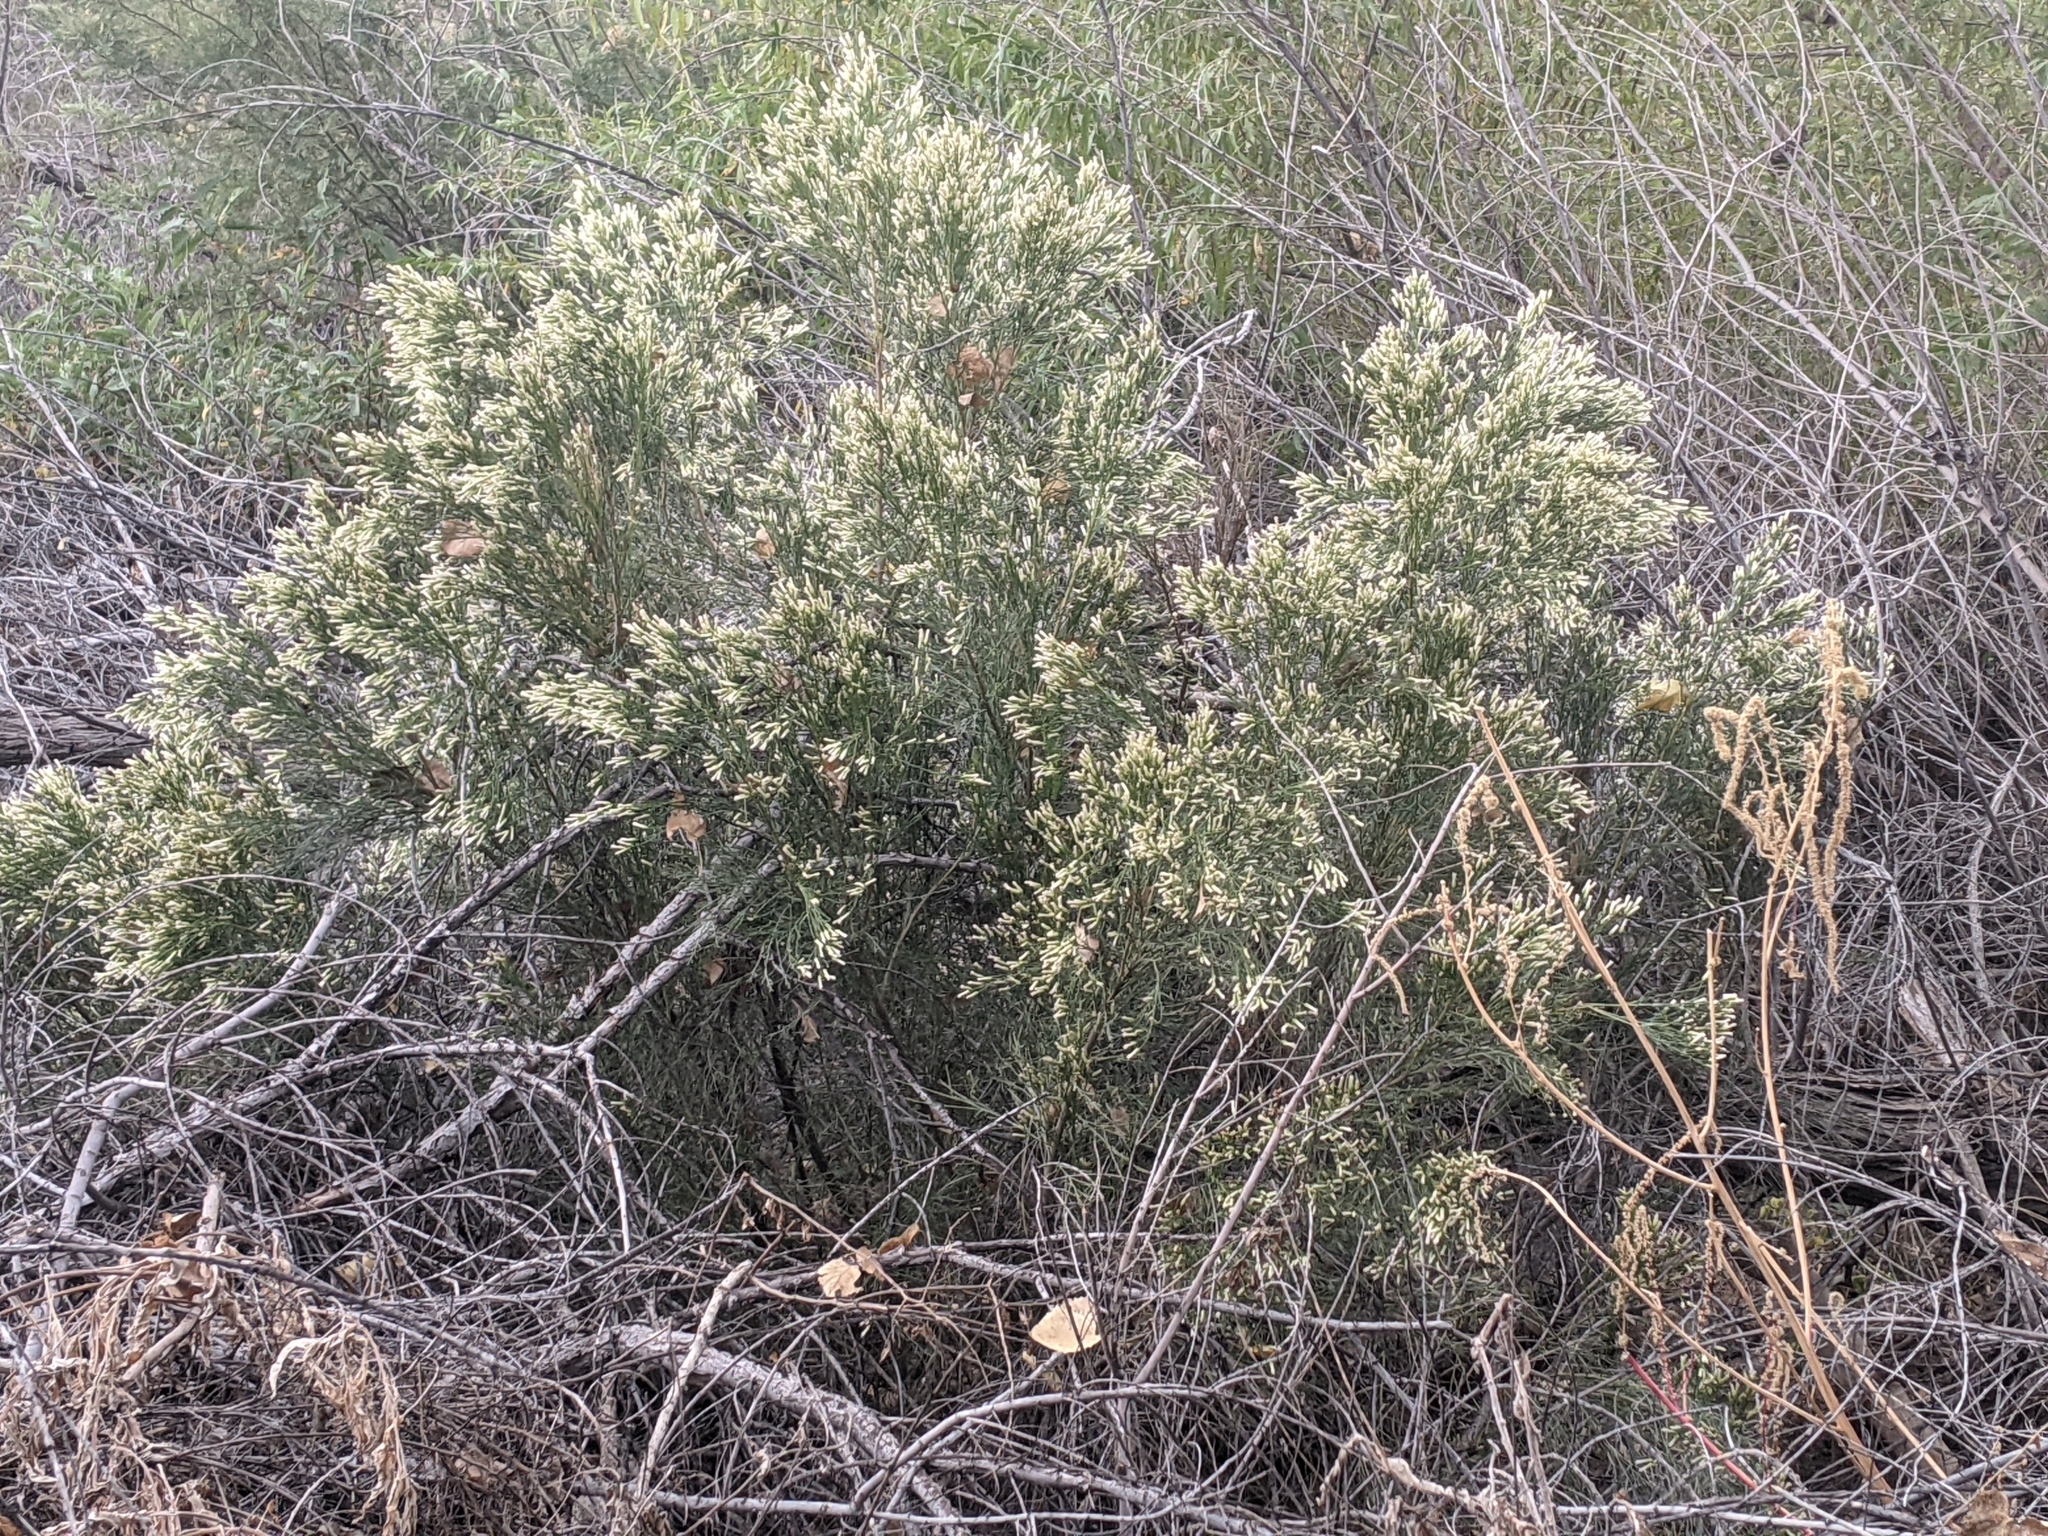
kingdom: Plantae
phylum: Tracheophyta
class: Magnoliopsida
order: Asterales
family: Asteraceae
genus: Baccharis
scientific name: Baccharis sarothroides
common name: Desert-broom
